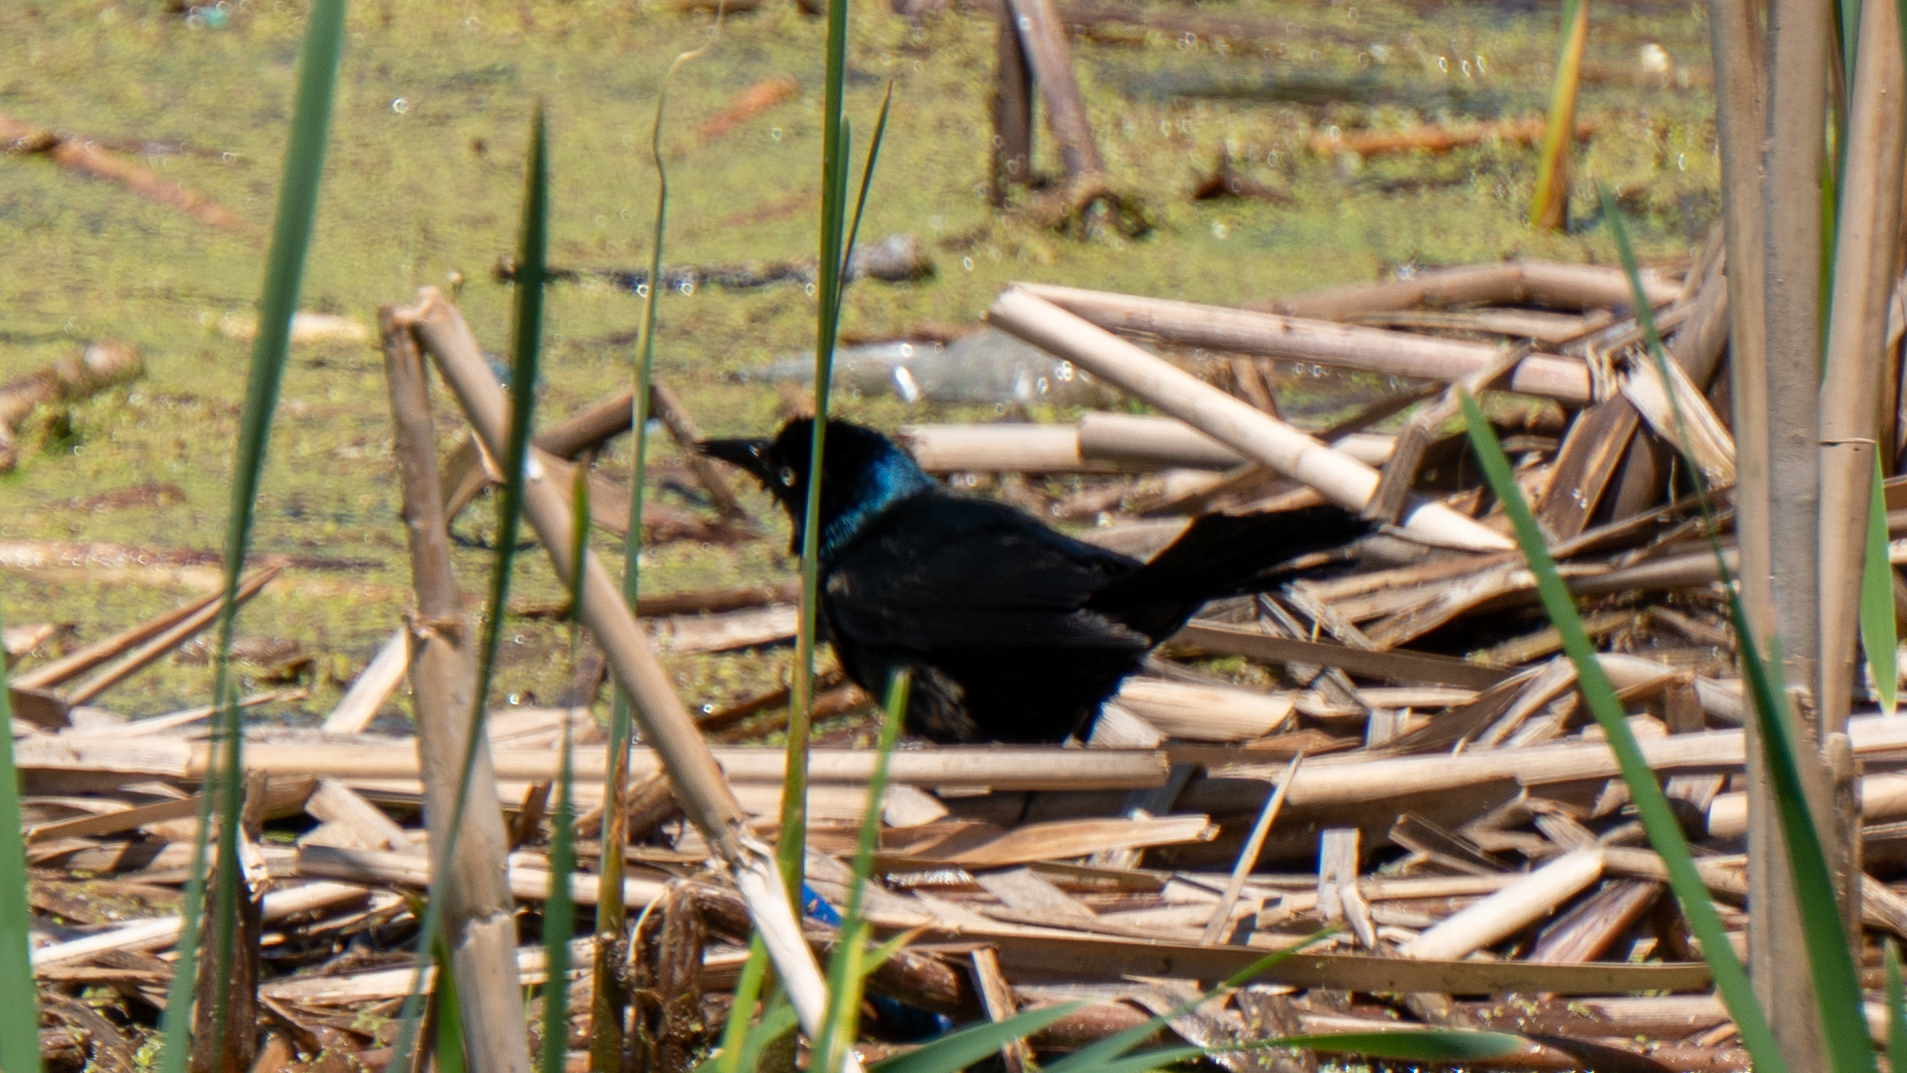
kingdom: Animalia
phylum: Chordata
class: Aves
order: Passeriformes
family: Icteridae
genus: Quiscalus
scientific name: Quiscalus quiscula
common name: Common grackle
